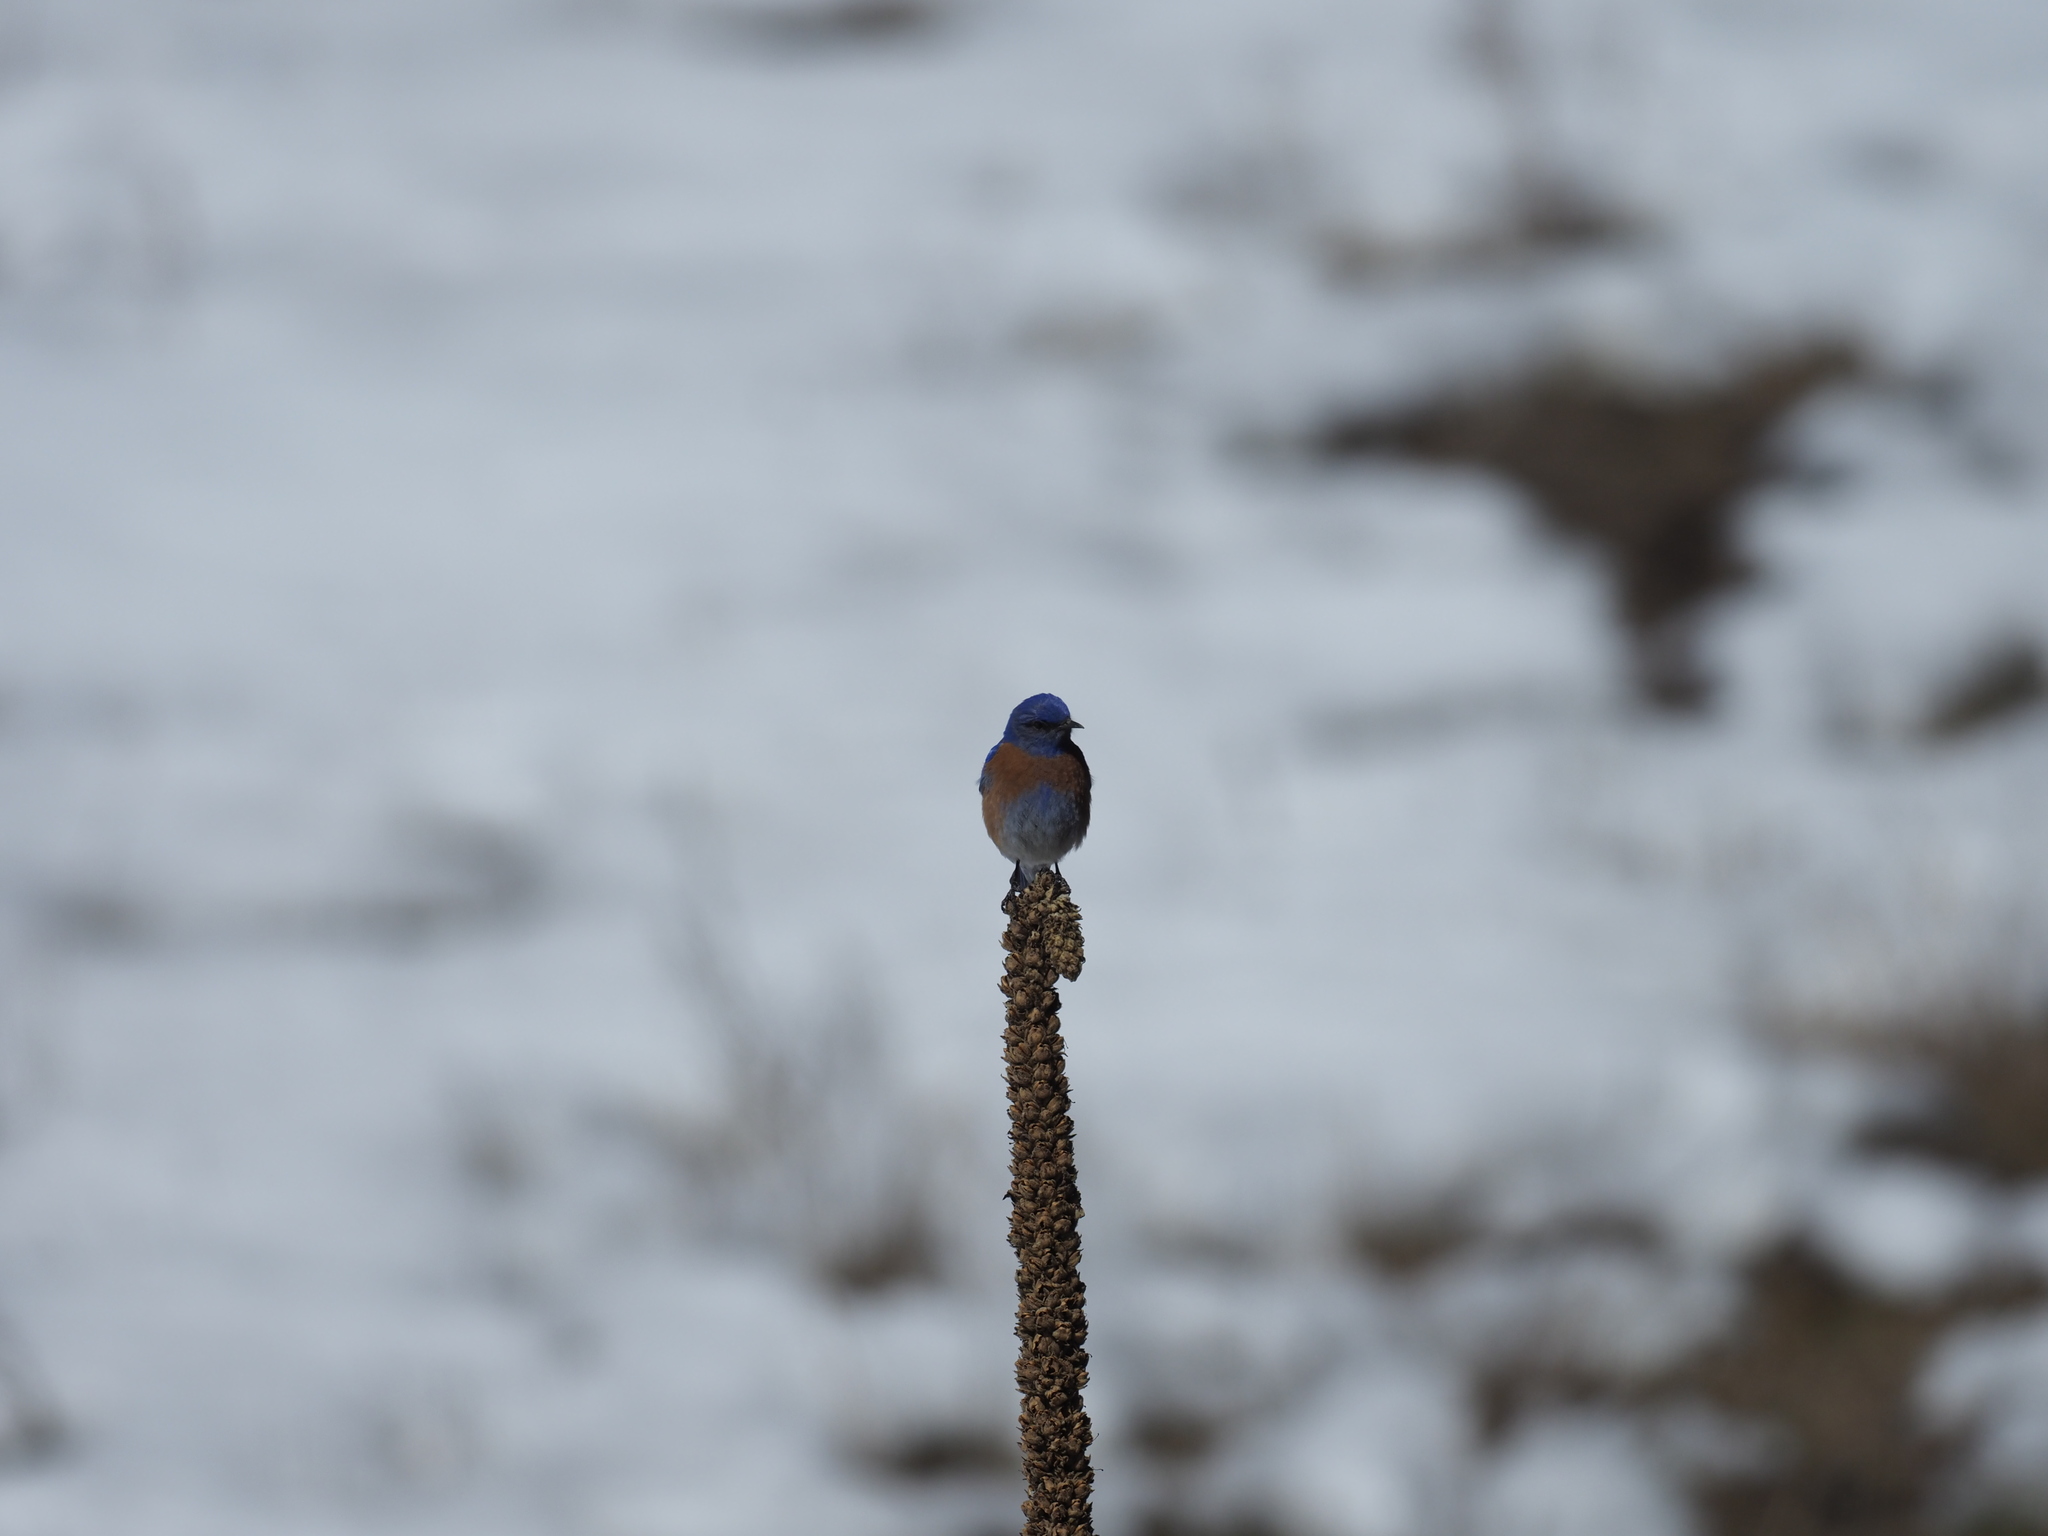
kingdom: Animalia
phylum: Chordata
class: Aves
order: Passeriformes
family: Turdidae
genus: Sialia
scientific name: Sialia mexicana
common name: Western bluebird
